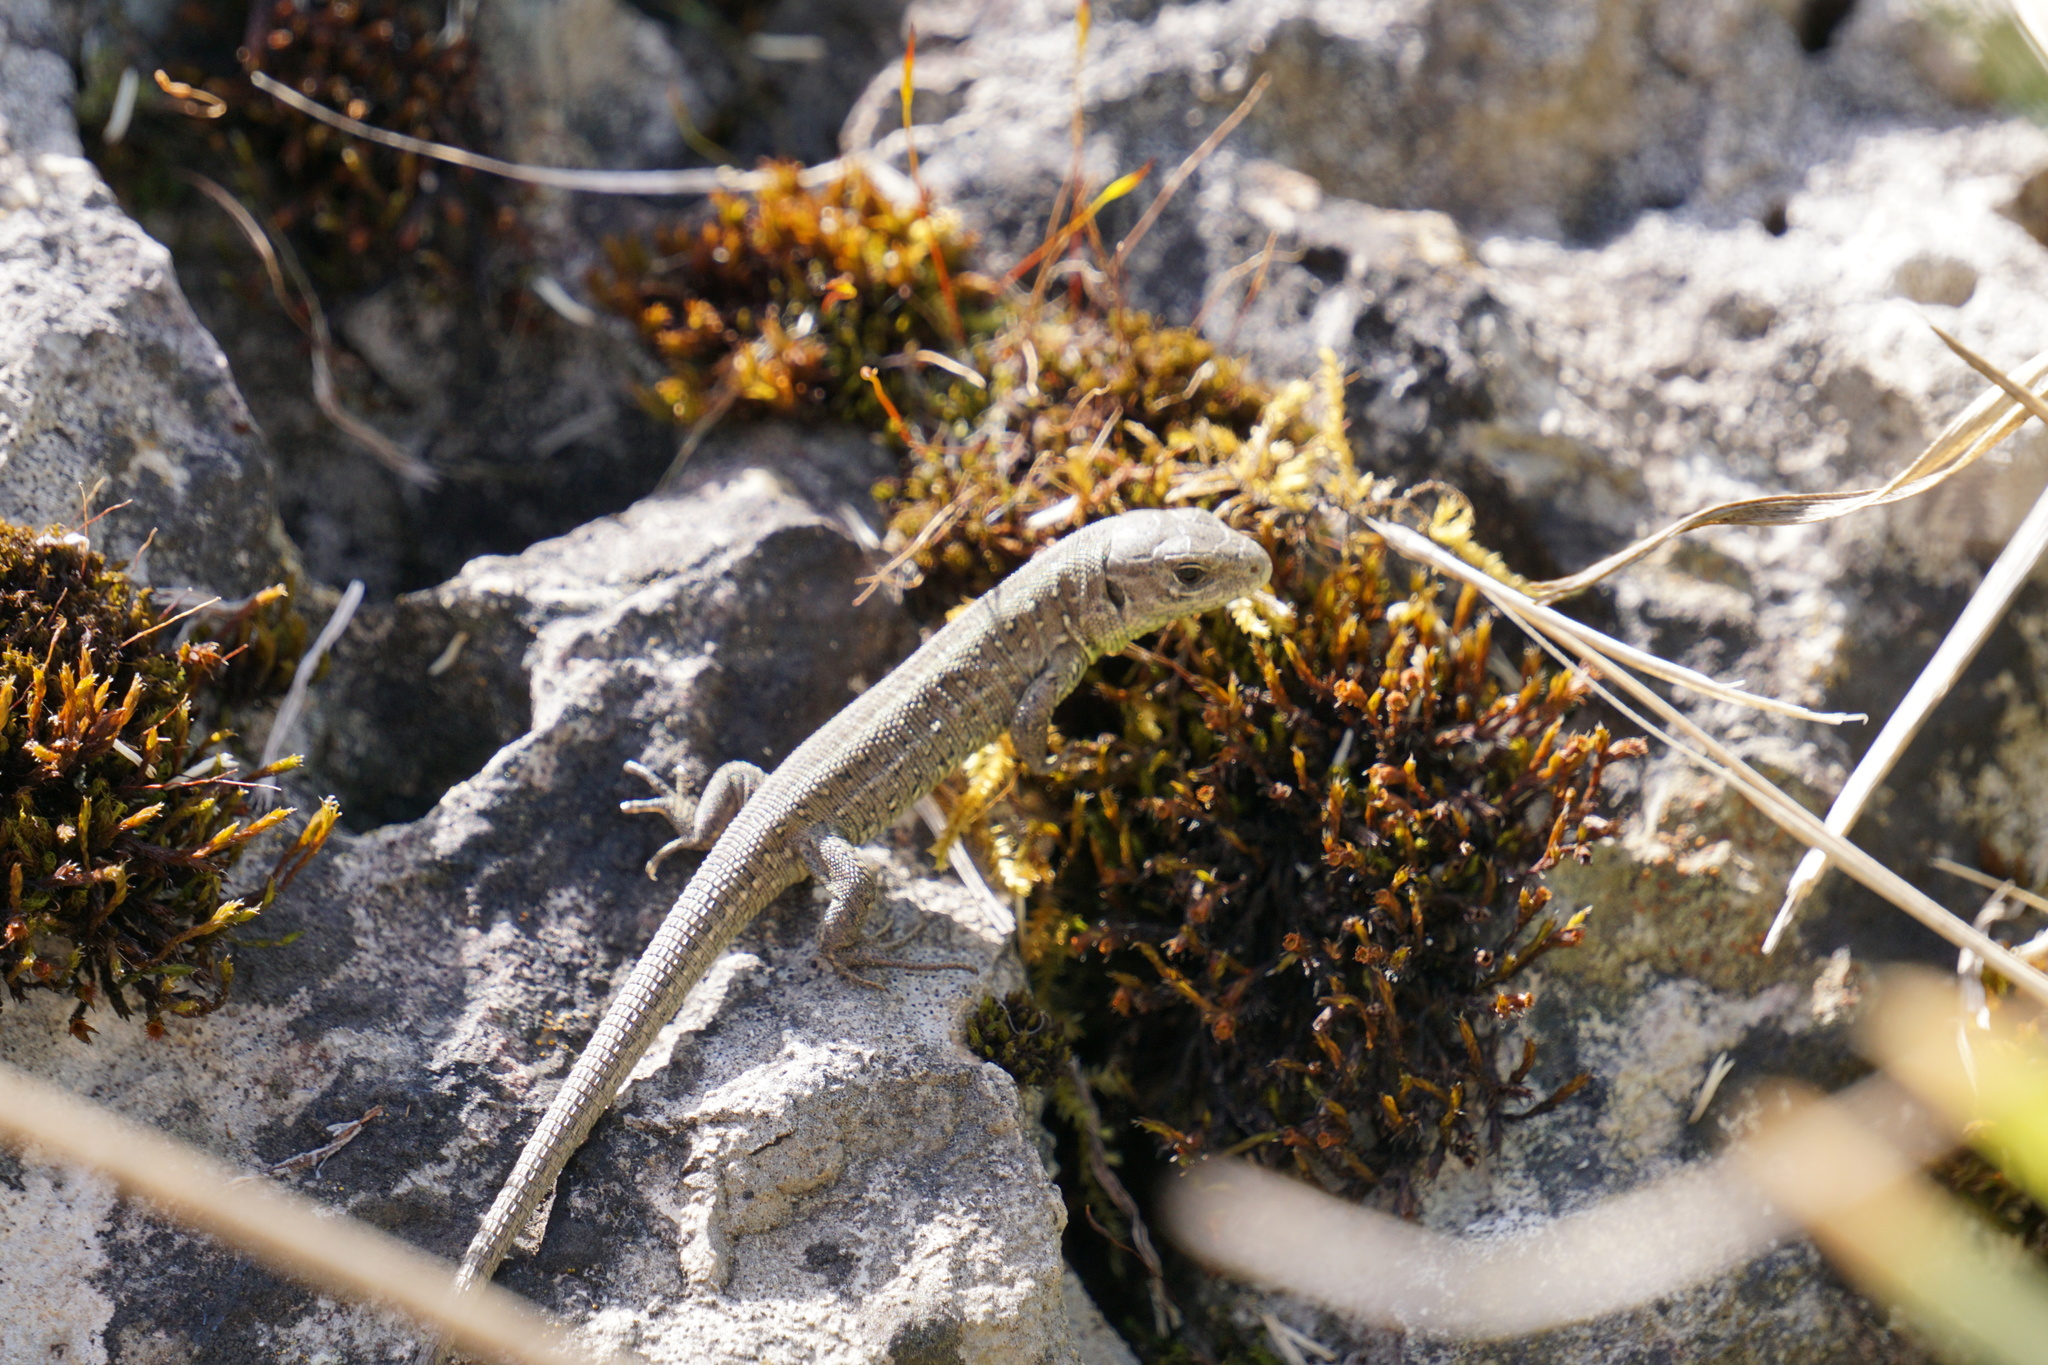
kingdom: Animalia
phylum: Chordata
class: Squamata
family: Lacertidae
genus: Lacerta
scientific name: Lacerta agilis
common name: Sand lizard
